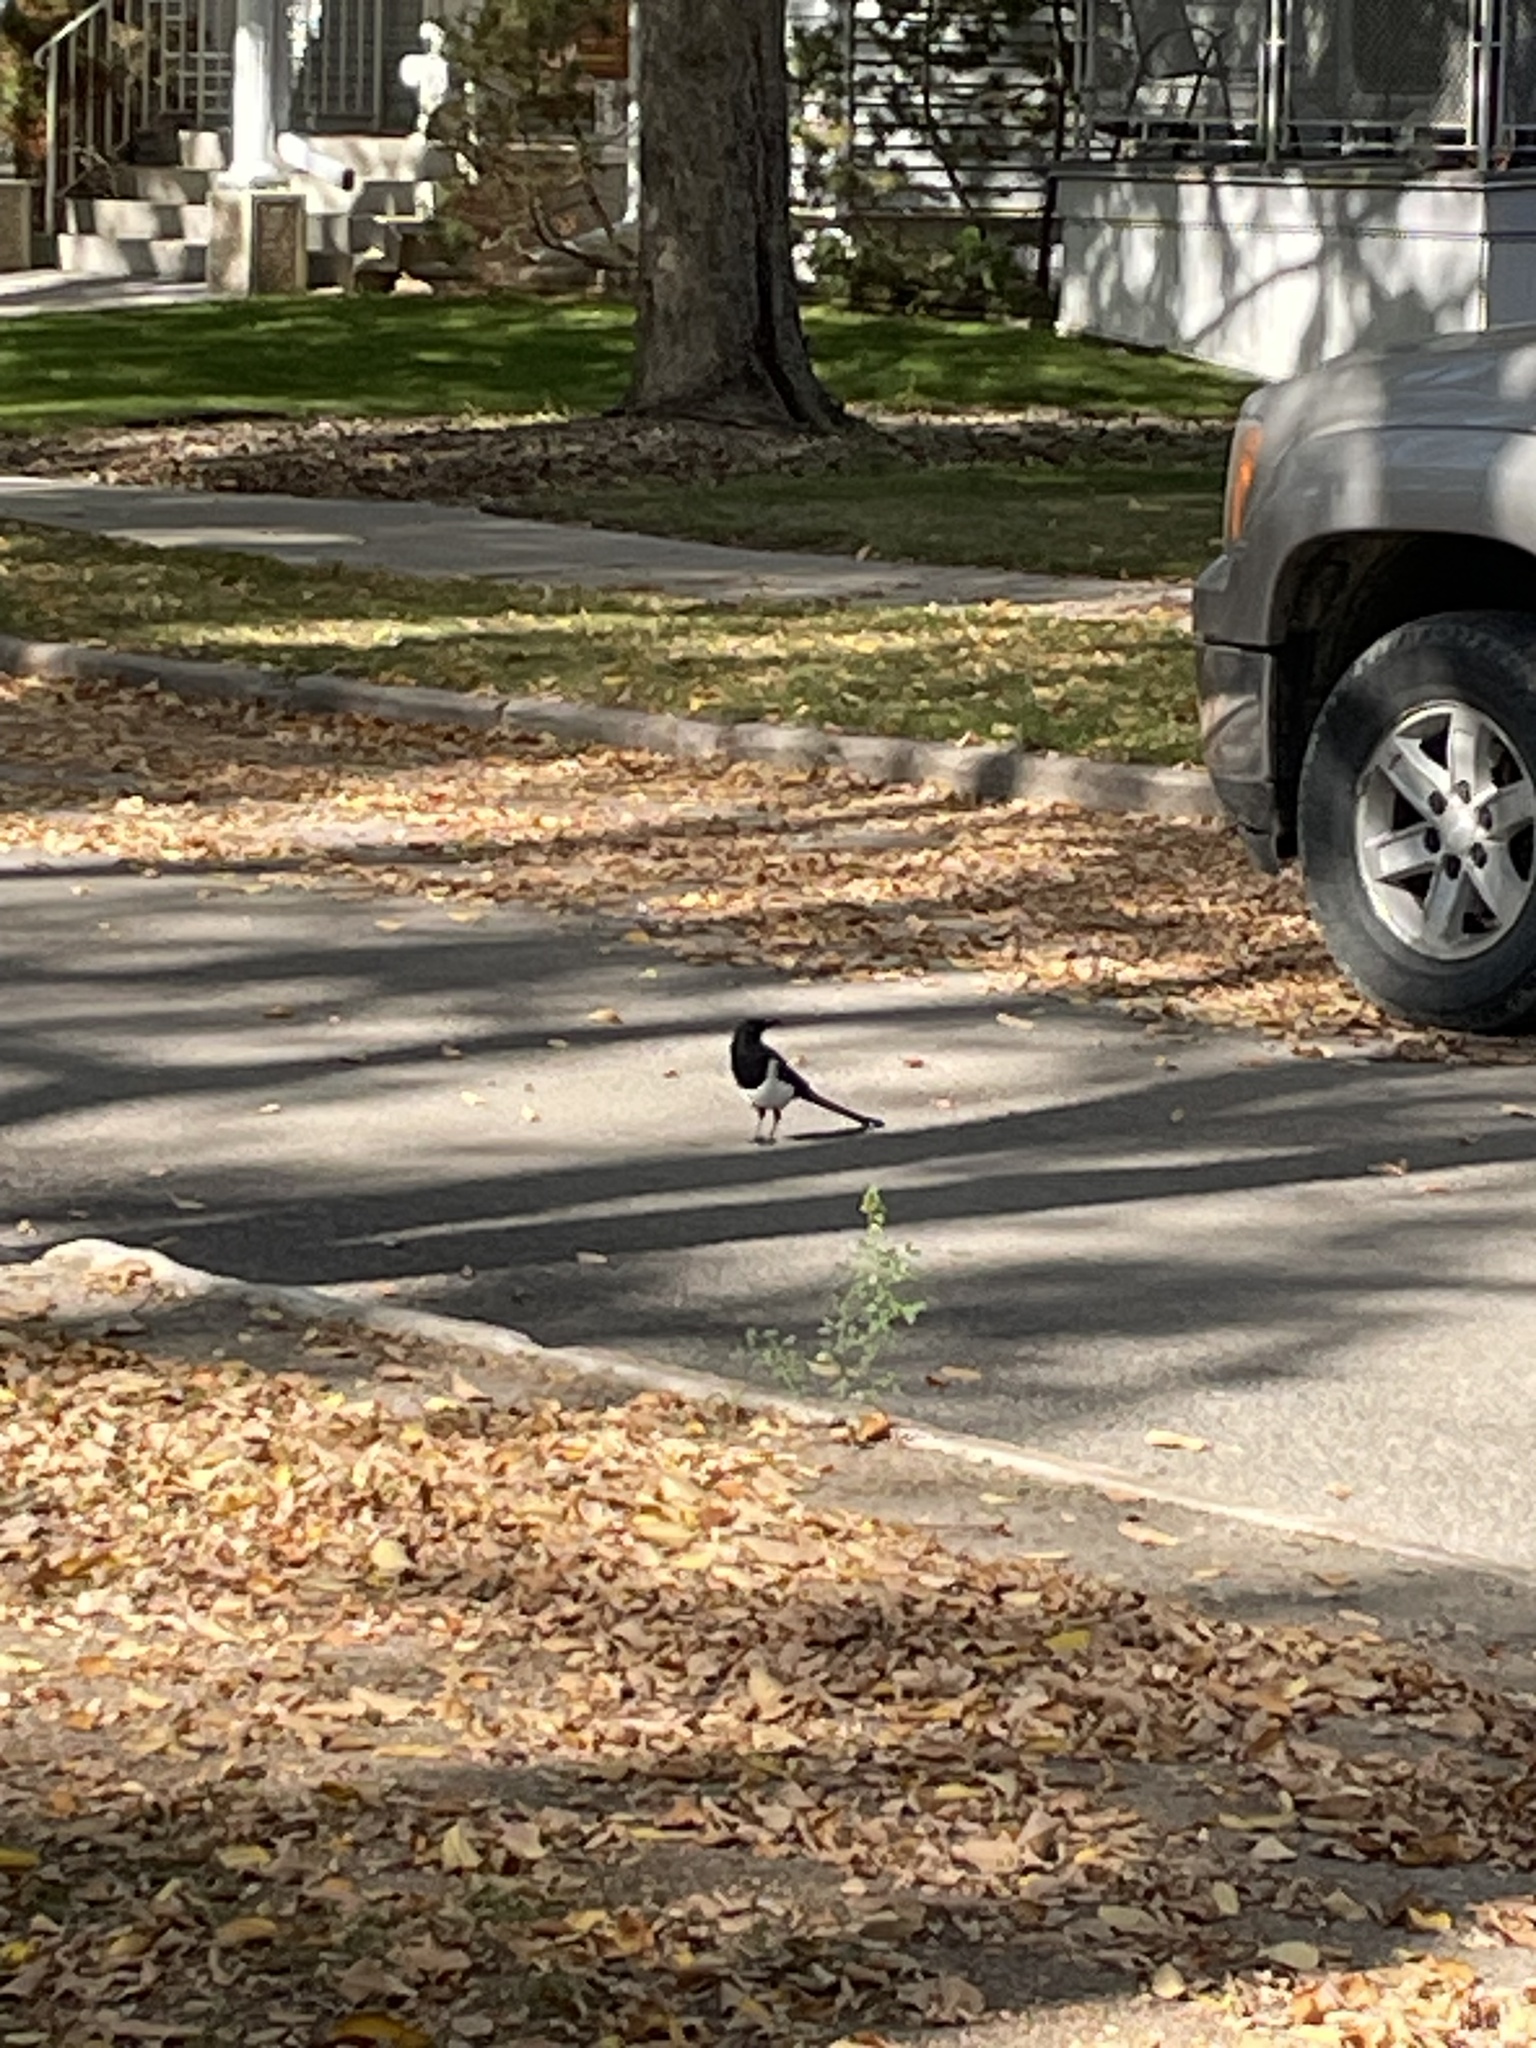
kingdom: Animalia
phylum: Chordata
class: Aves
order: Passeriformes
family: Corvidae
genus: Pica
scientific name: Pica hudsonia
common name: Black-billed magpie
